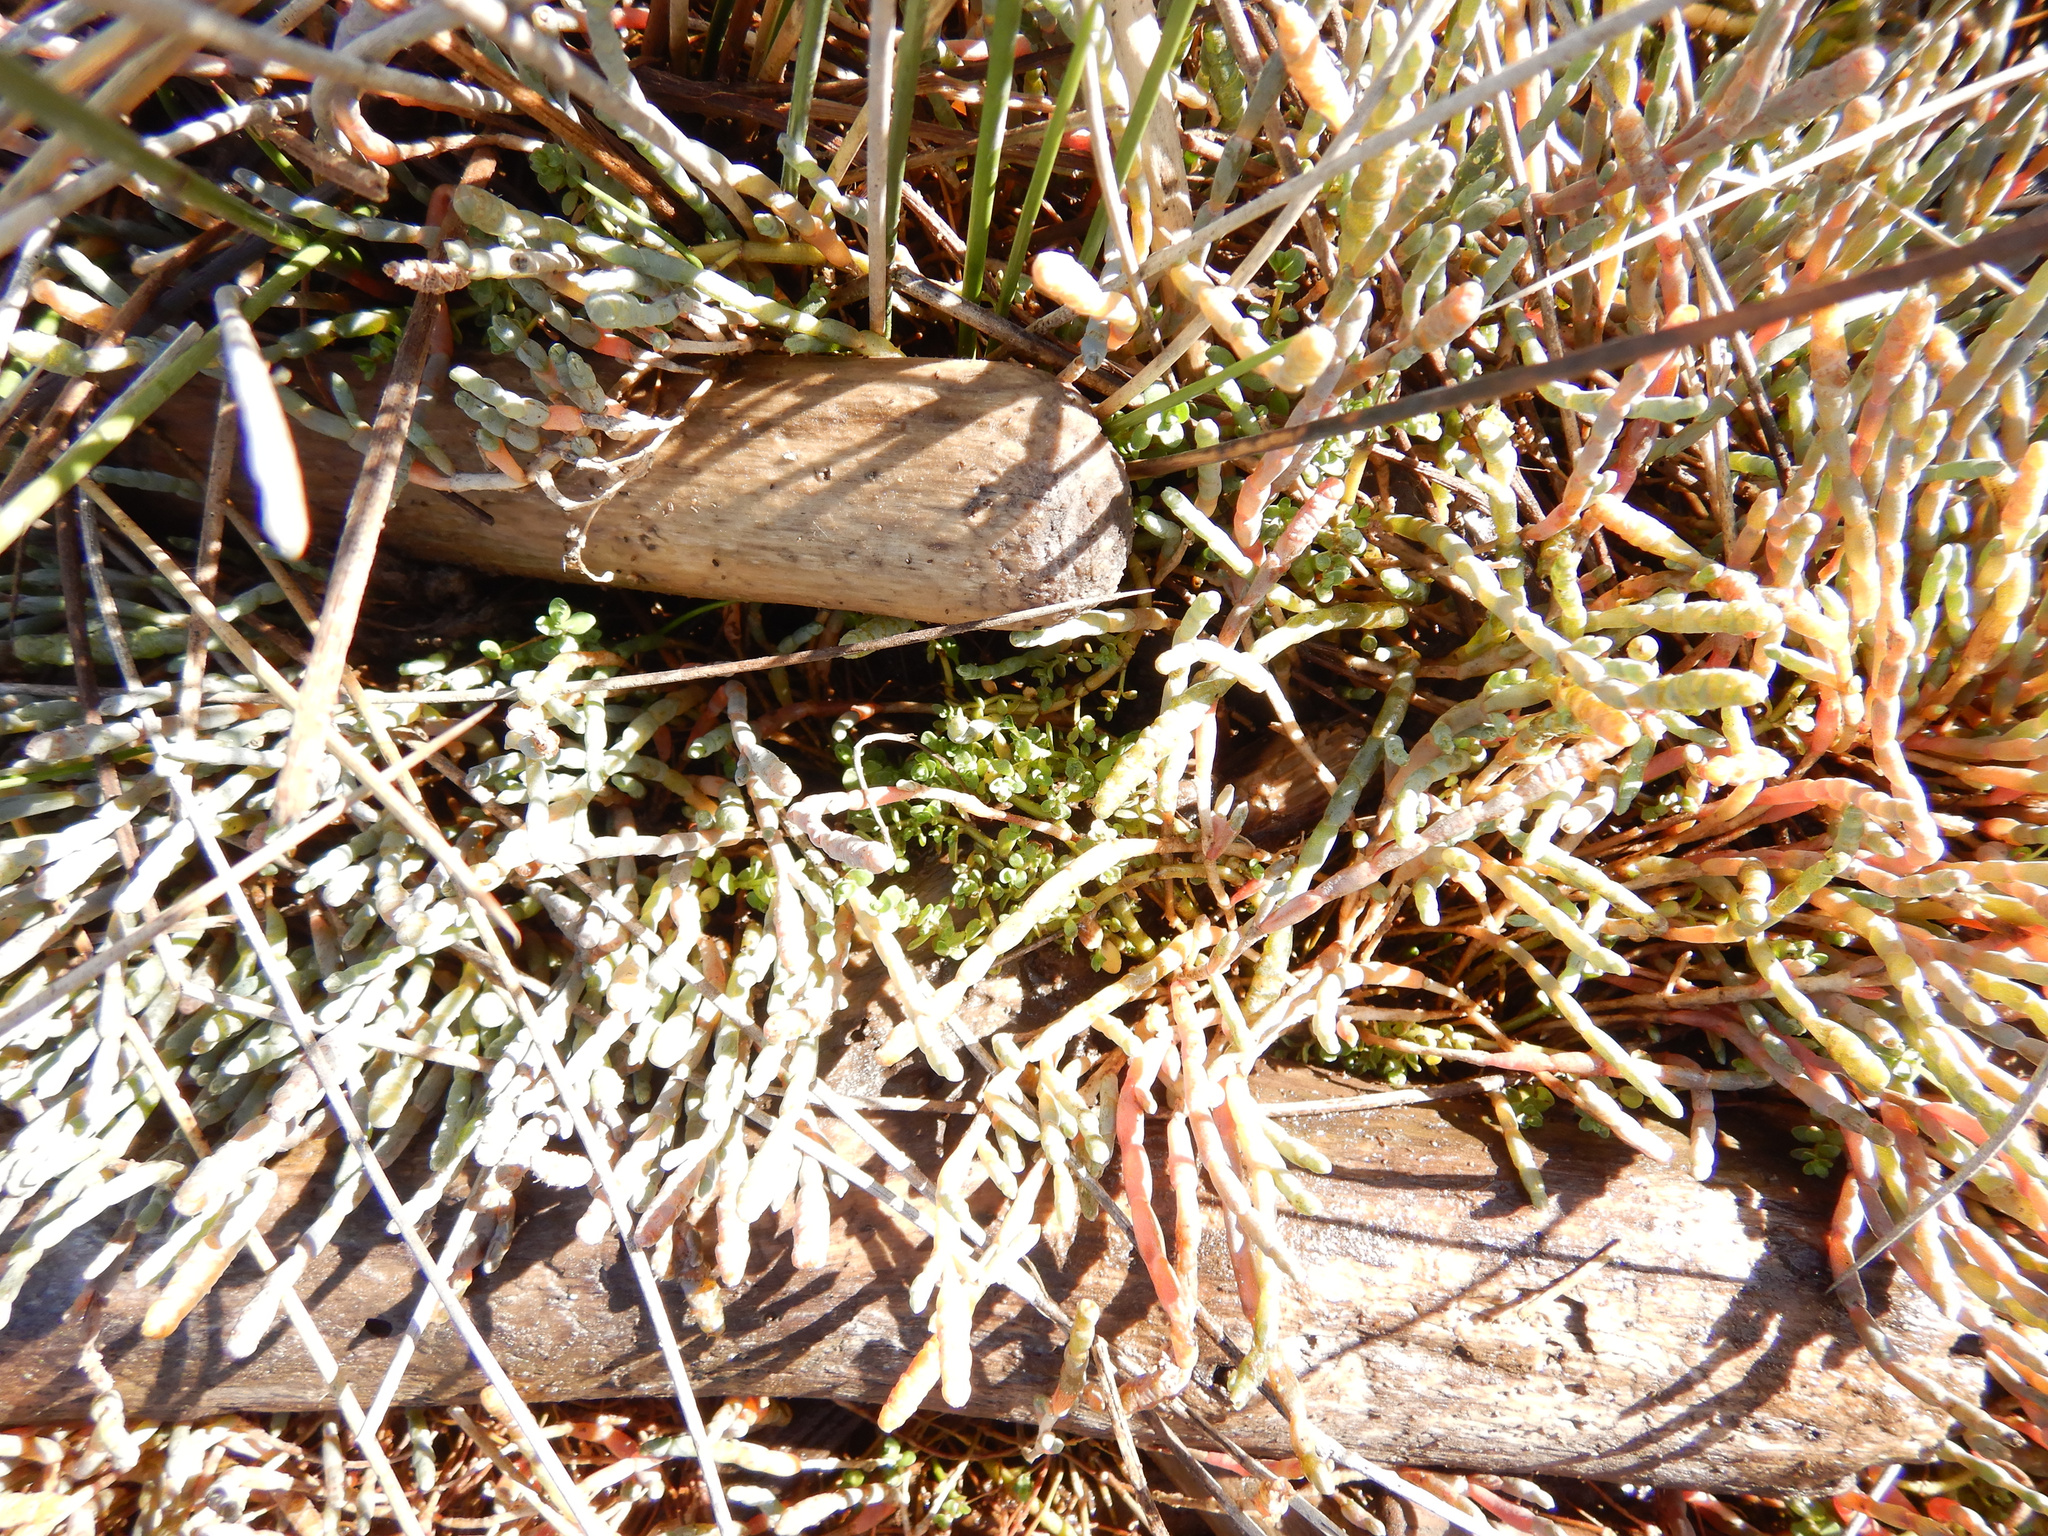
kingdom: Plantae
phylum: Tracheophyta
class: Magnoliopsida
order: Lamiales
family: Phrymaceae
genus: Thyridia
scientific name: Thyridia repens
